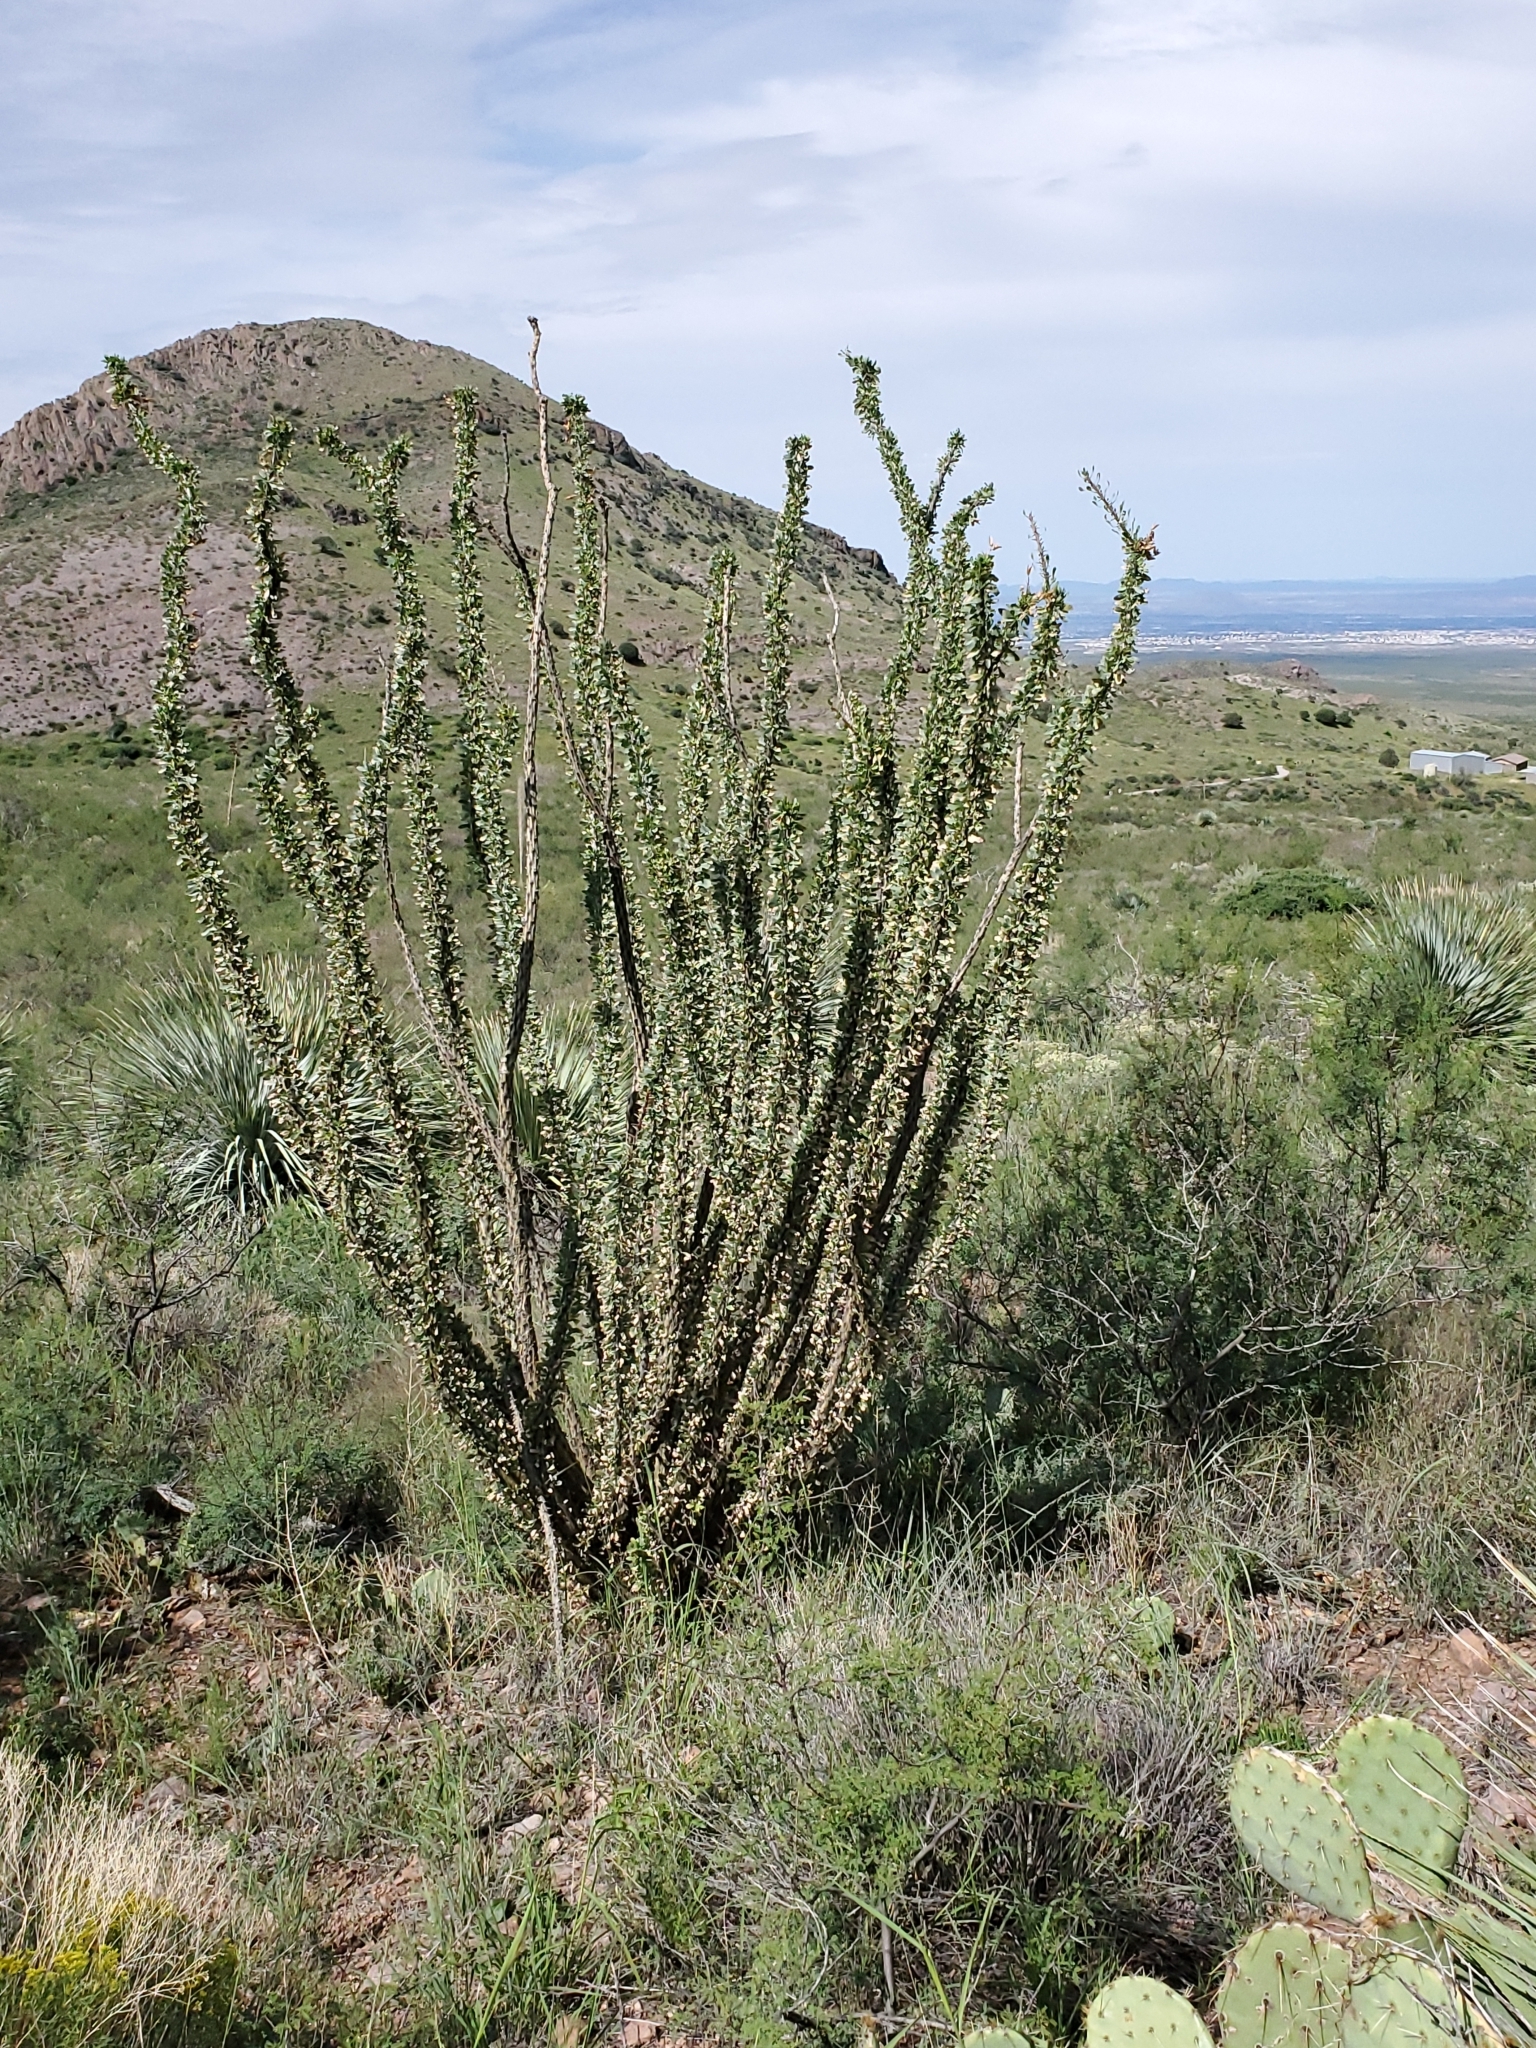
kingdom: Plantae
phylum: Tracheophyta
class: Magnoliopsida
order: Ericales
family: Fouquieriaceae
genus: Fouquieria
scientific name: Fouquieria splendens
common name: Vine-cactus
